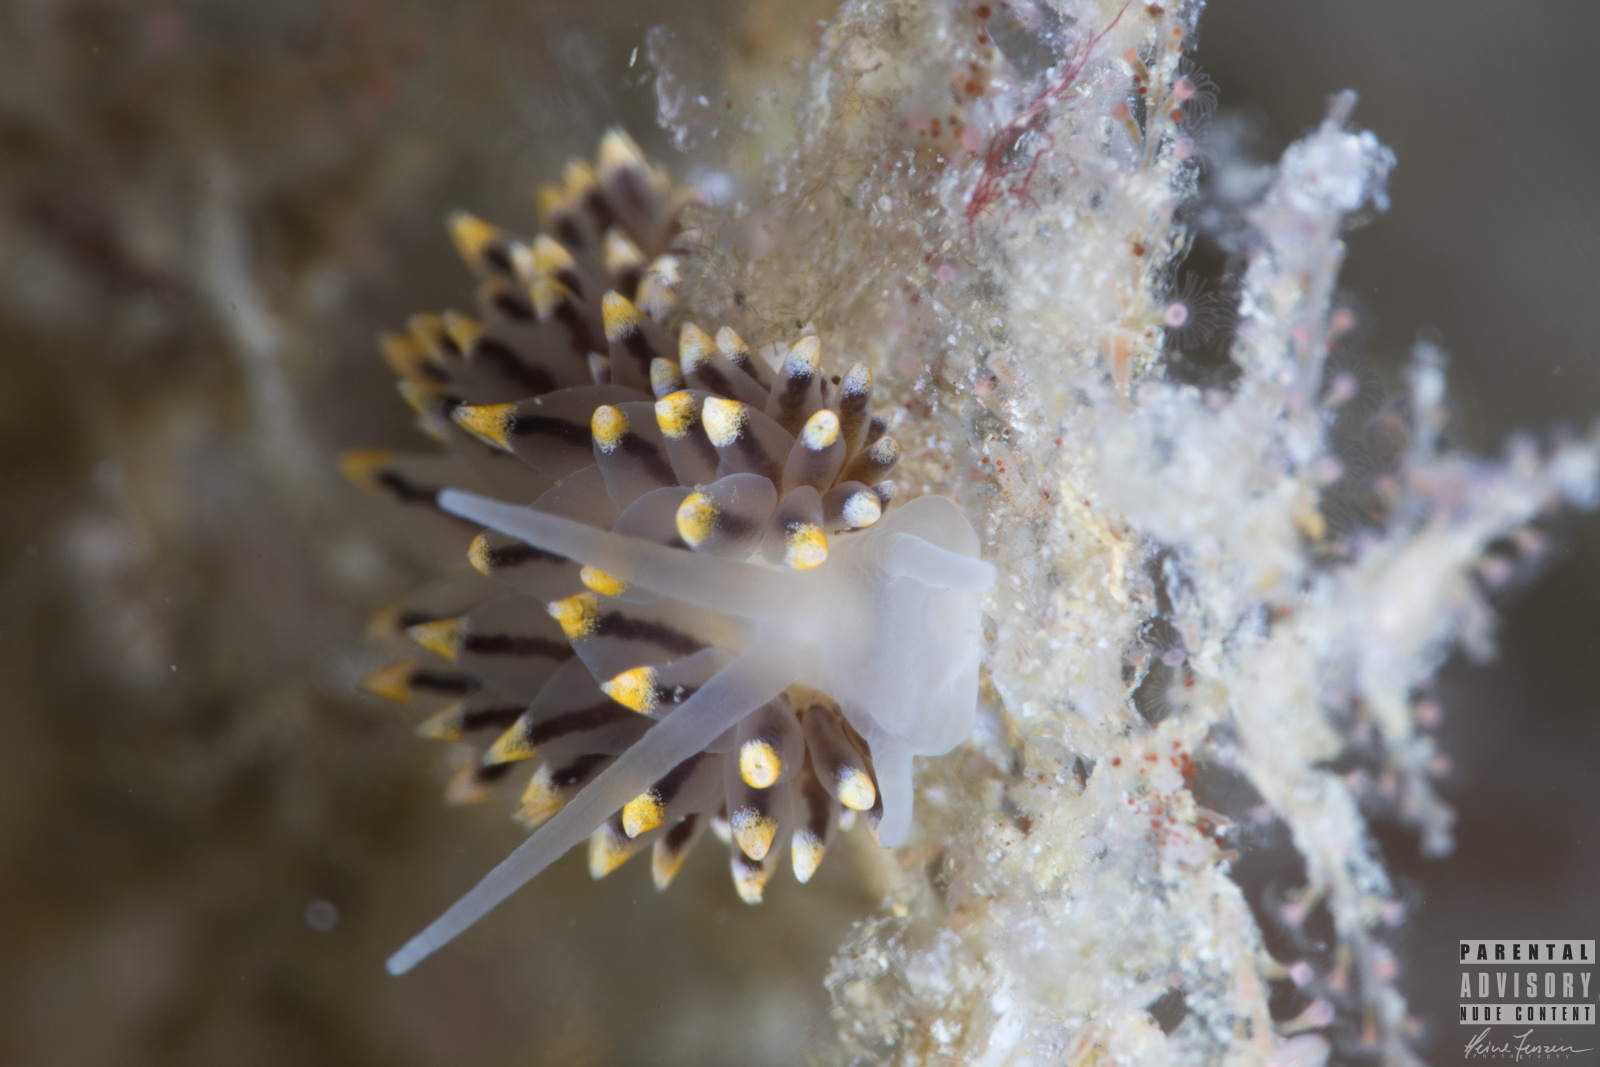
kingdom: Animalia
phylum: Mollusca
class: Gastropoda
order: Nudibranchia
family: Eubranchidae
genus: Eubranchus
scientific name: Eubranchus tricolor
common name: Painted balloon aeolis
